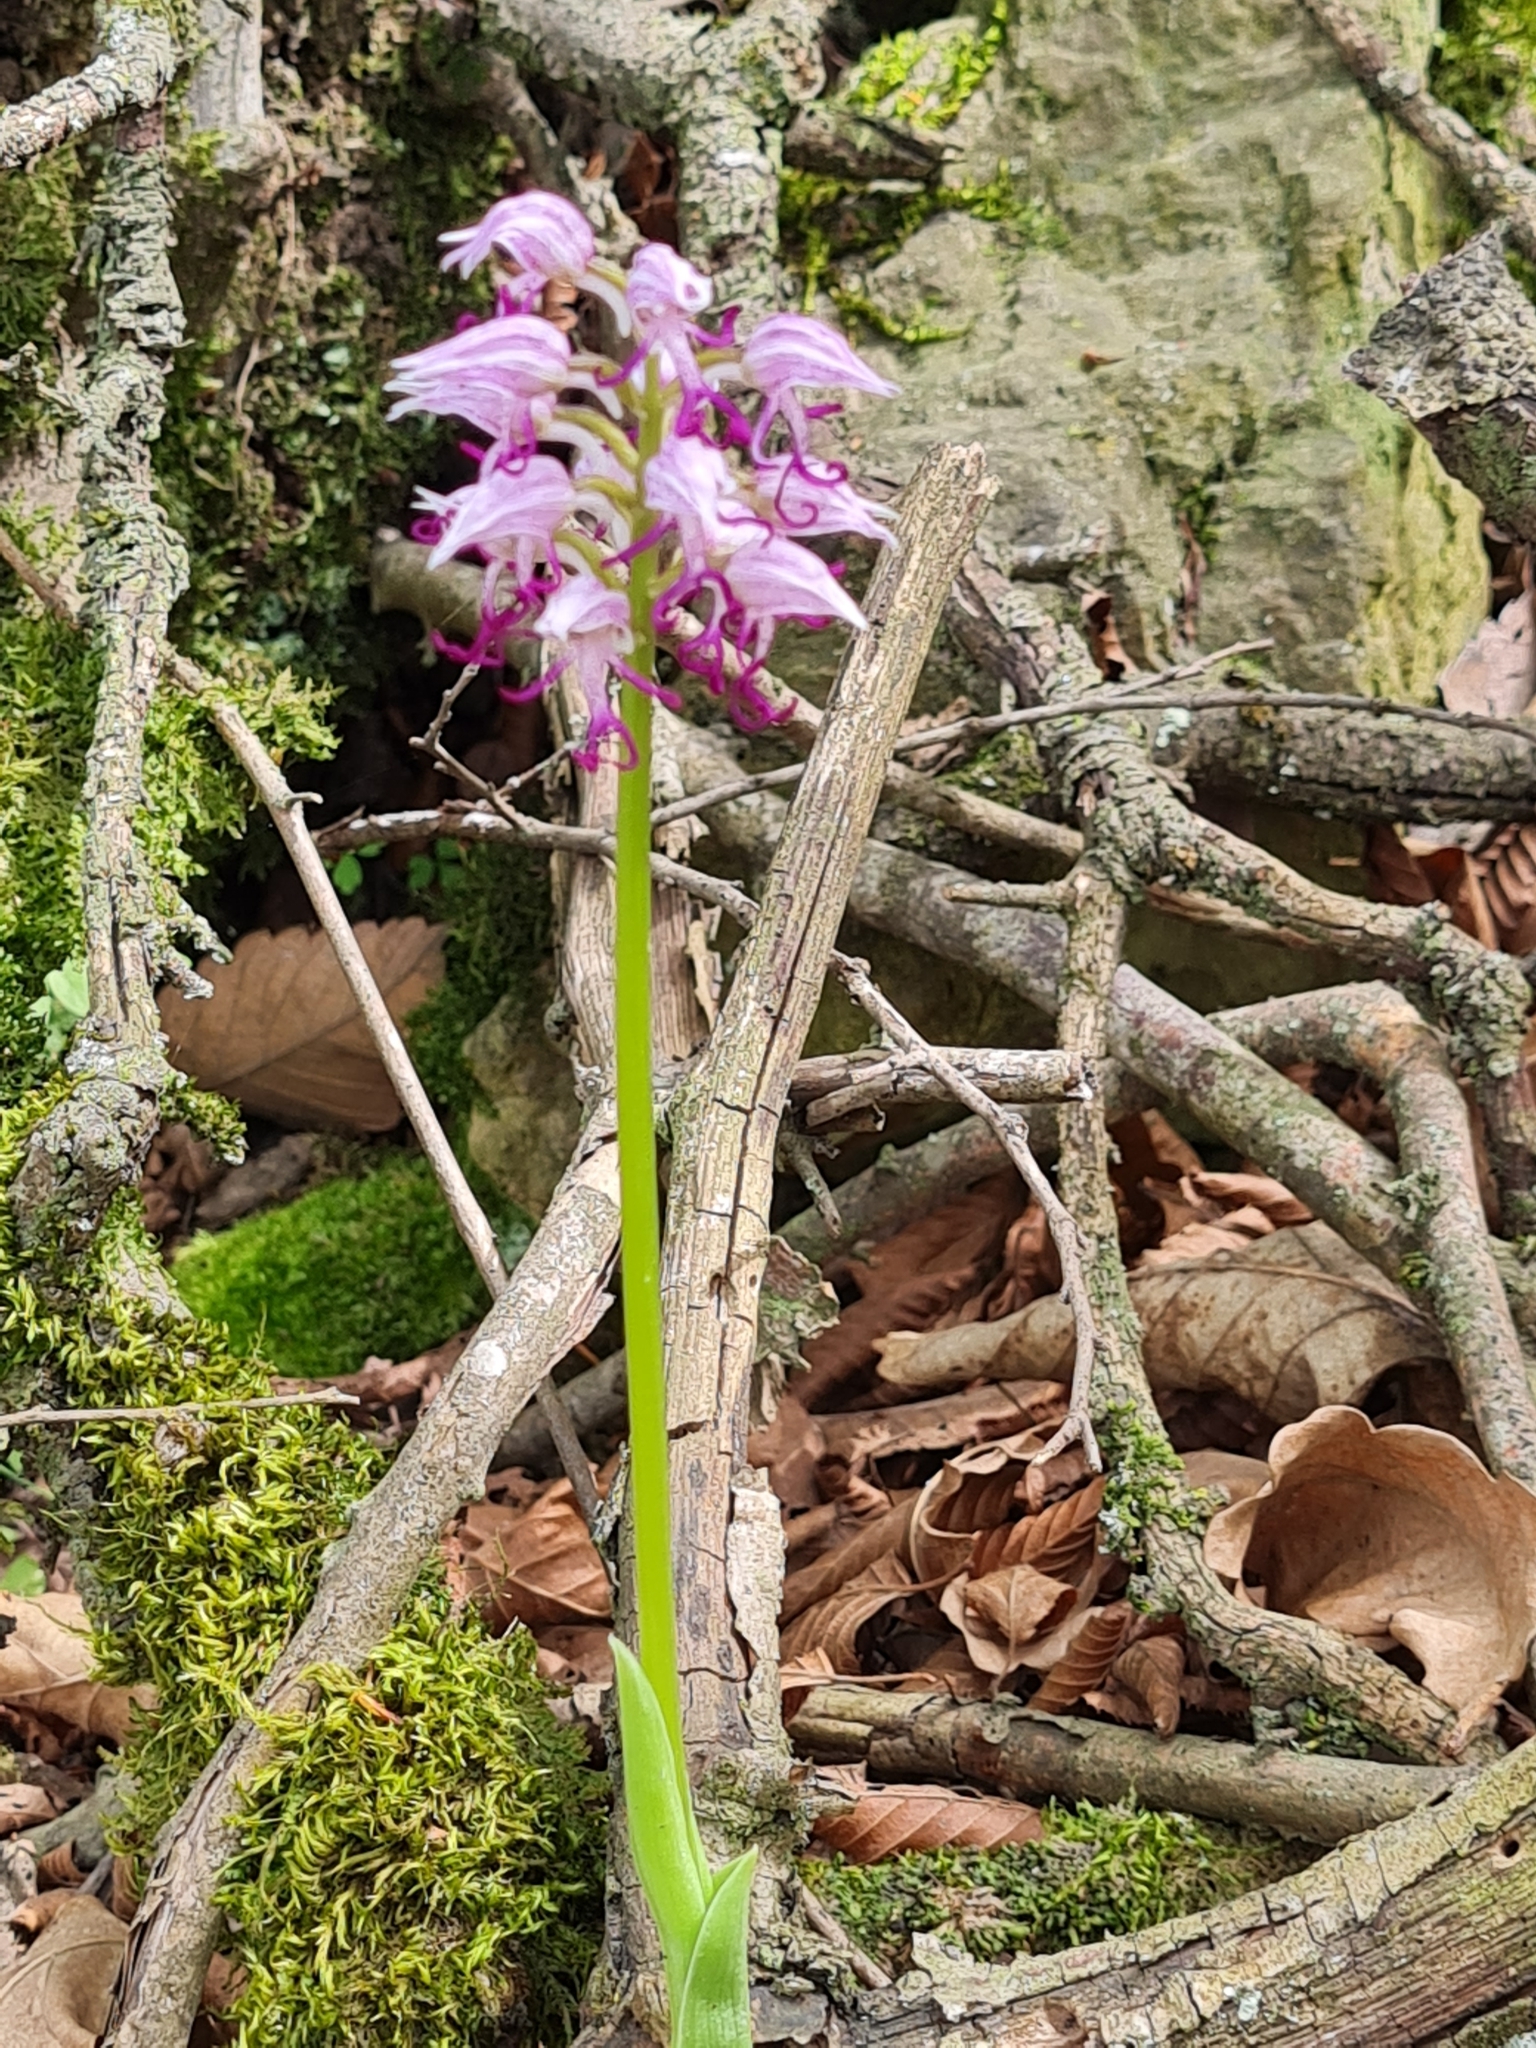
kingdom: Plantae
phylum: Tracheophyta
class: Liliopsida
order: Asparagales
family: Orchidaceae
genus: Orchis
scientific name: Orchis simia
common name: Monkey orchid
